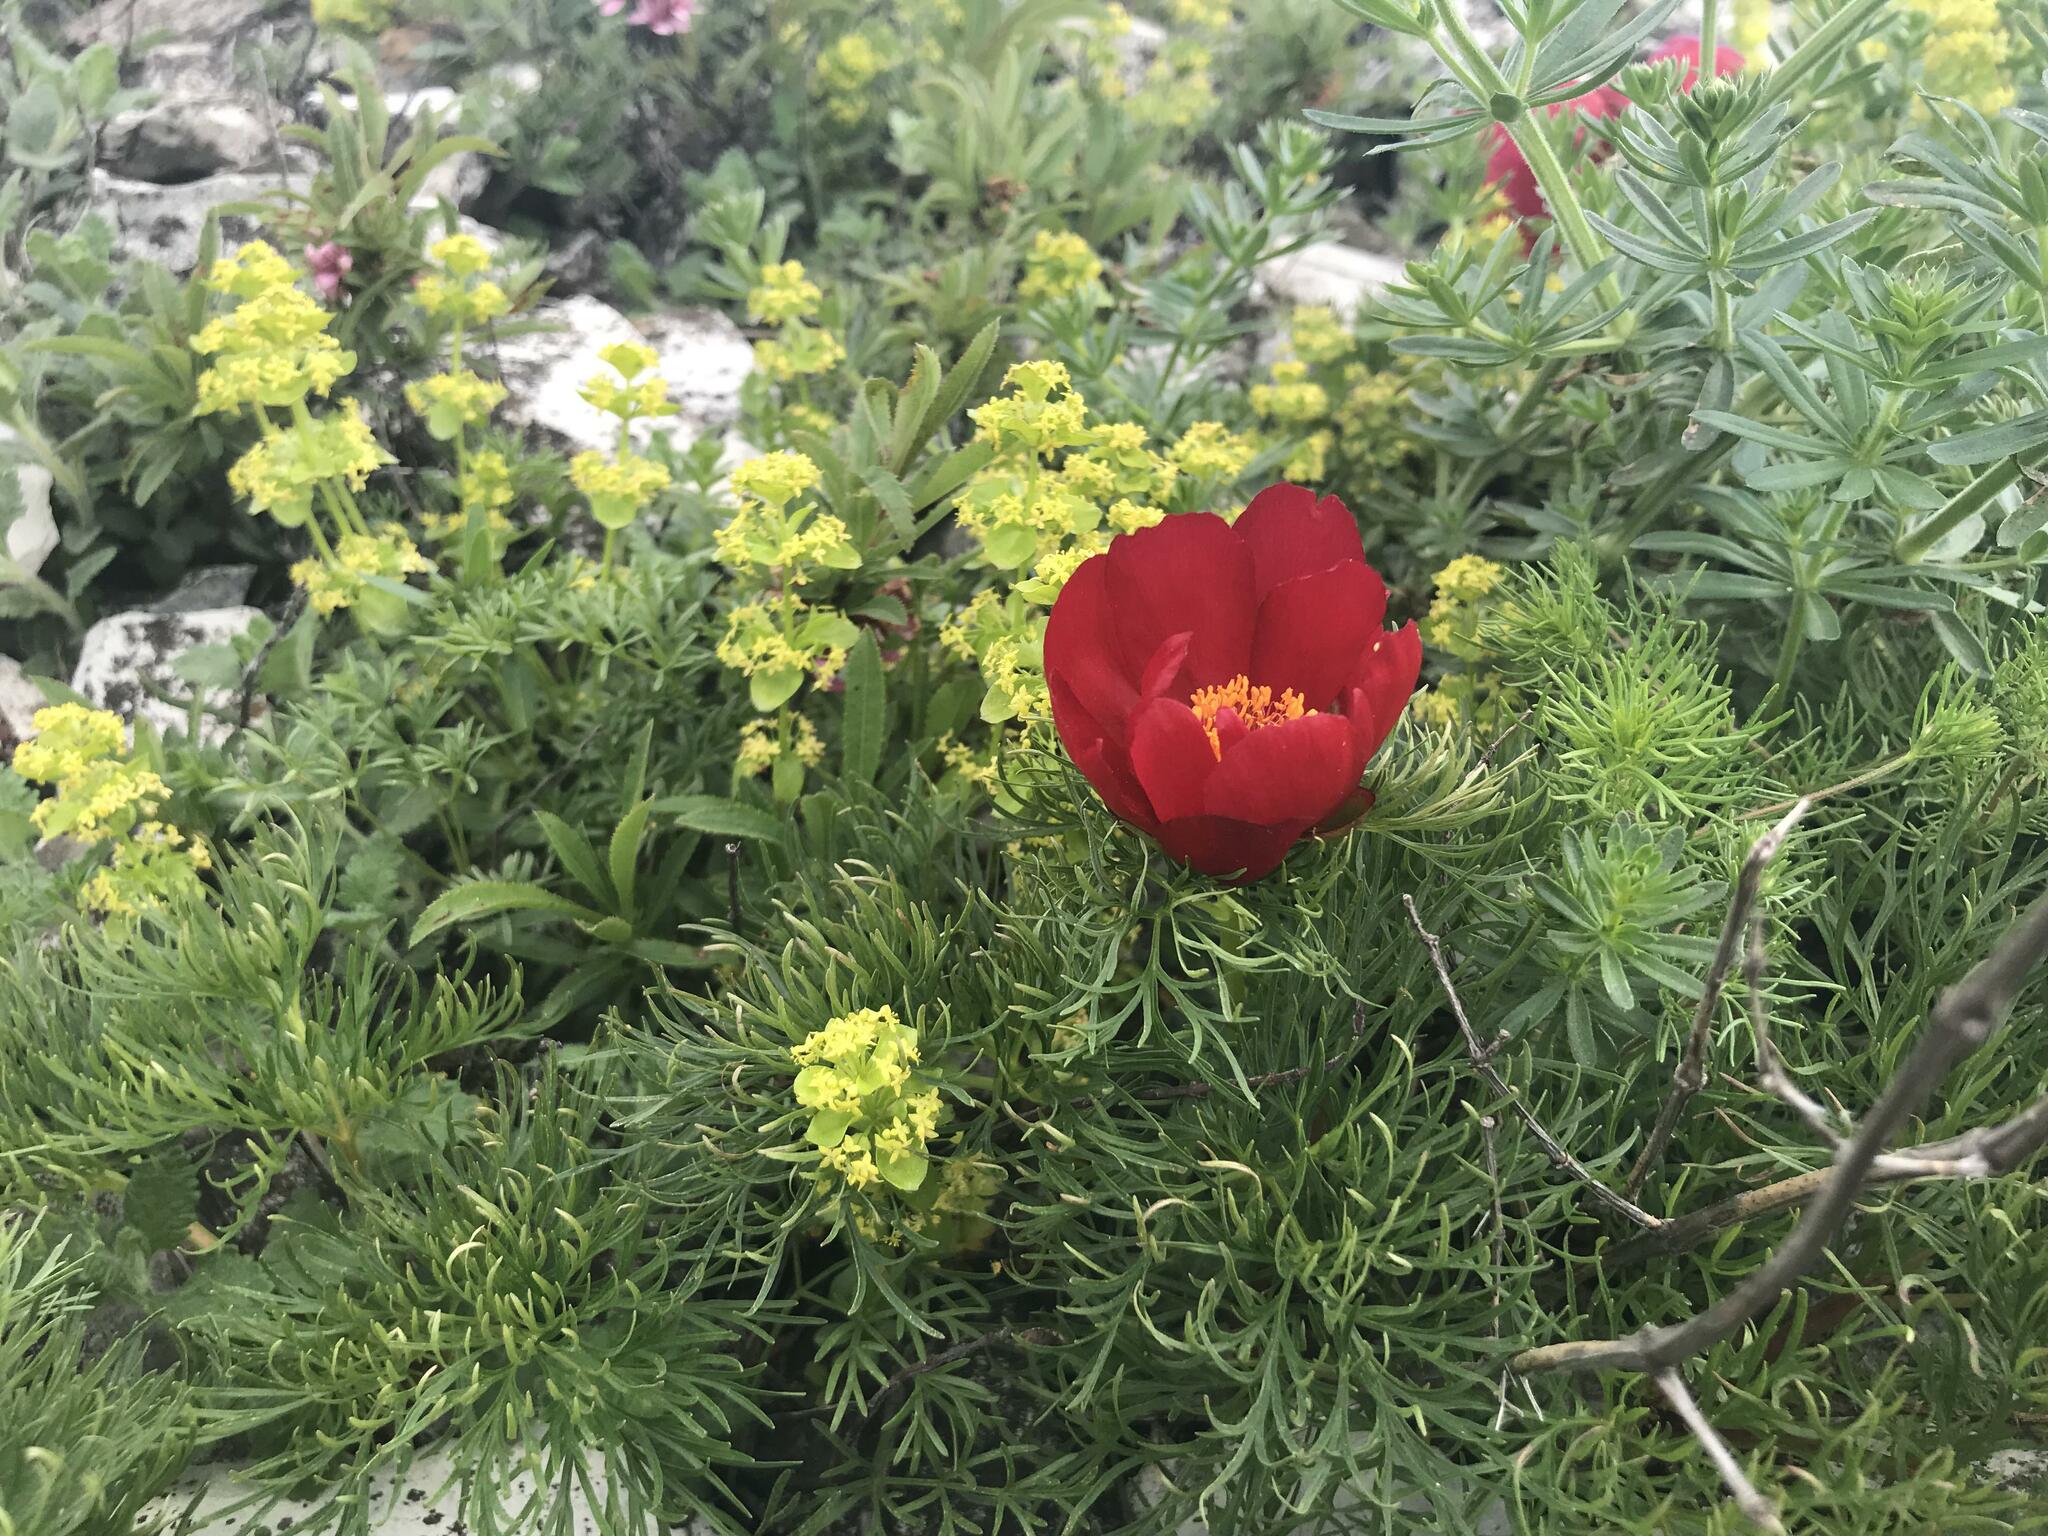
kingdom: Plantae
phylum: Tracheophyta
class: Magnoliopsida
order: Saxifragales
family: Paeoniaceae
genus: Paeonia
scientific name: Paeonia tenuifolia
